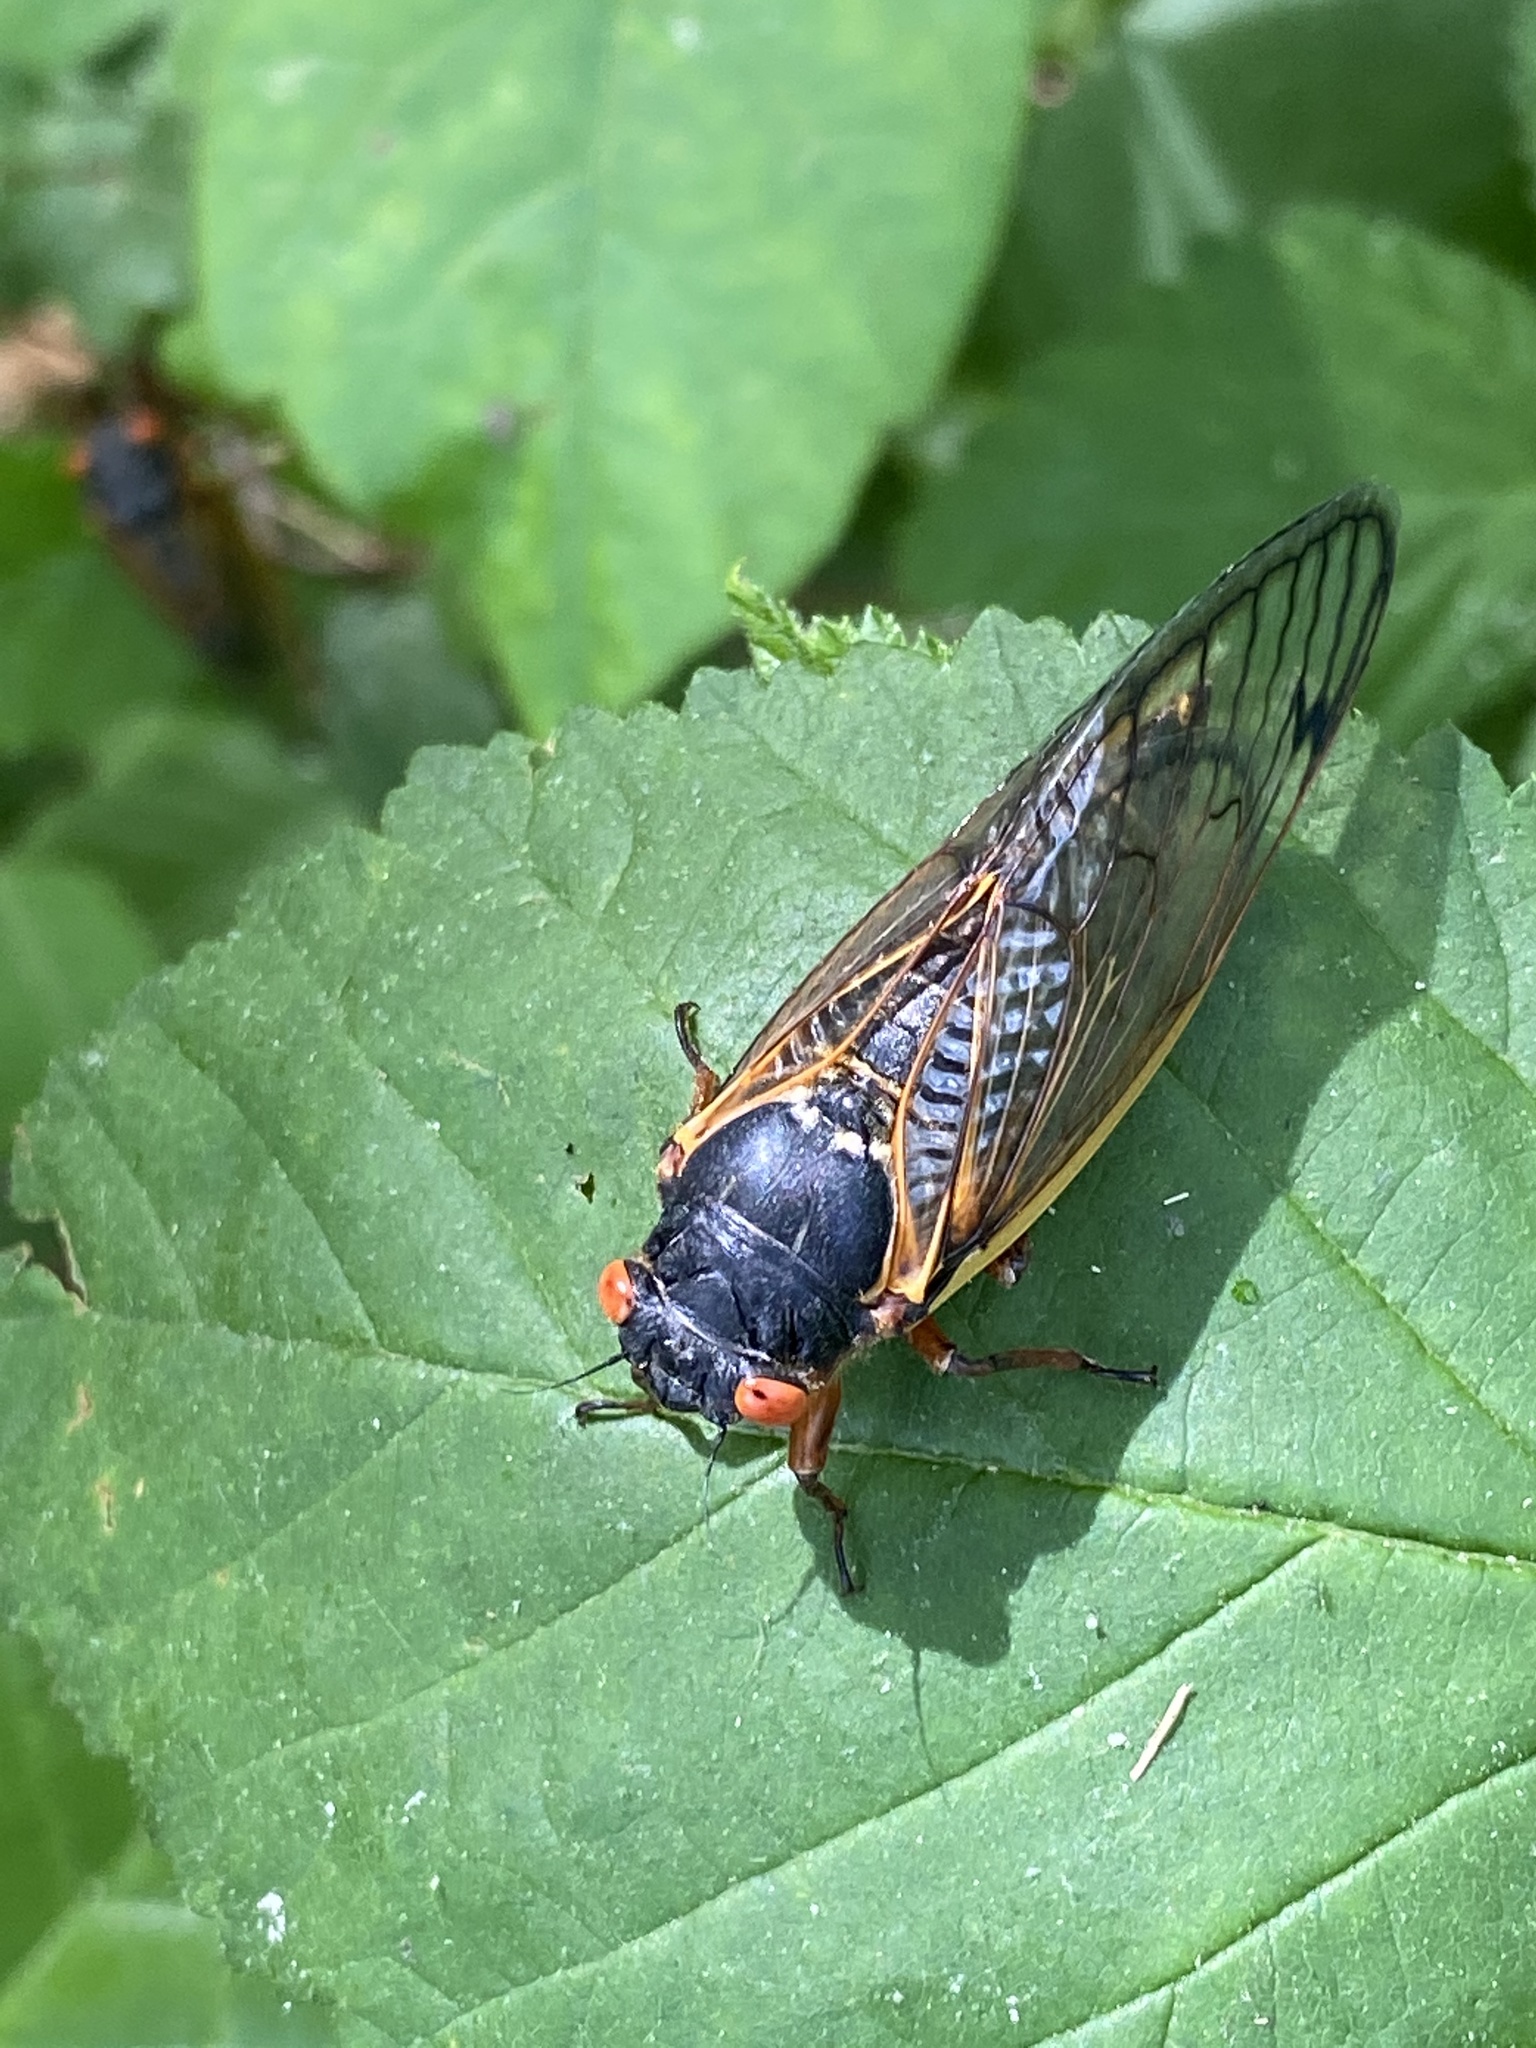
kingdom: Animalia
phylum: Arthropoda
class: Insecta
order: Hemiptera
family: Cicadidae
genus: Magicicada
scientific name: Magicicada
